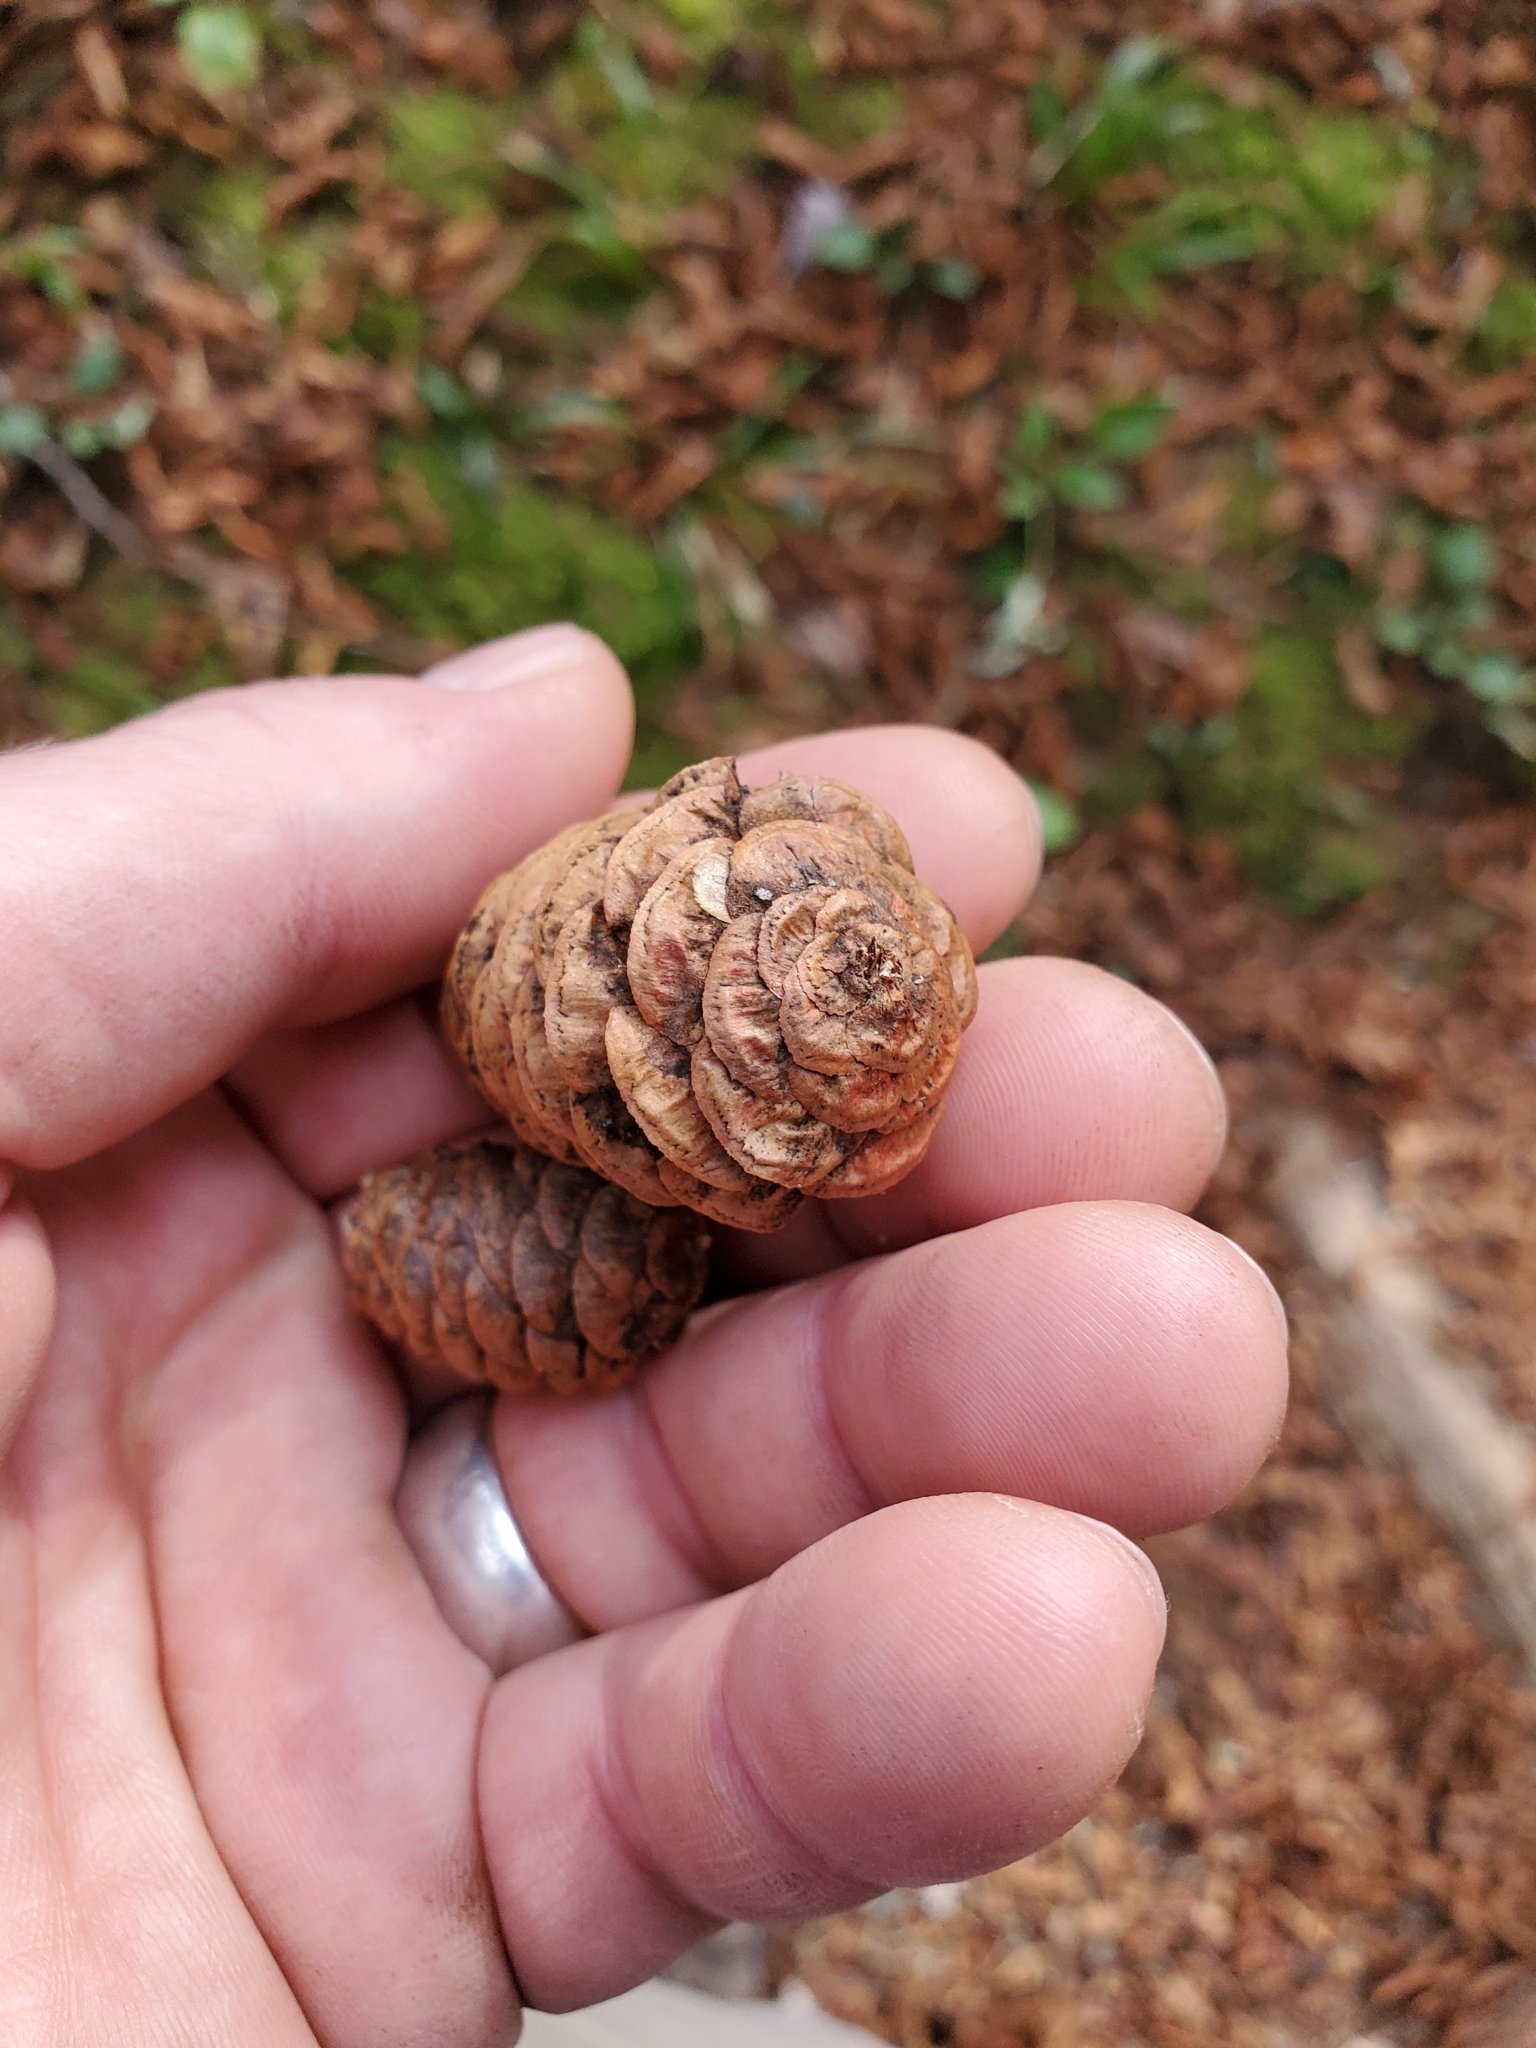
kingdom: Plantae
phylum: Tracheophyta
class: Pinopsida
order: Pinales
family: Pinaceae
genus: Picea
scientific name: Picea rubens
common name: Red spruce
